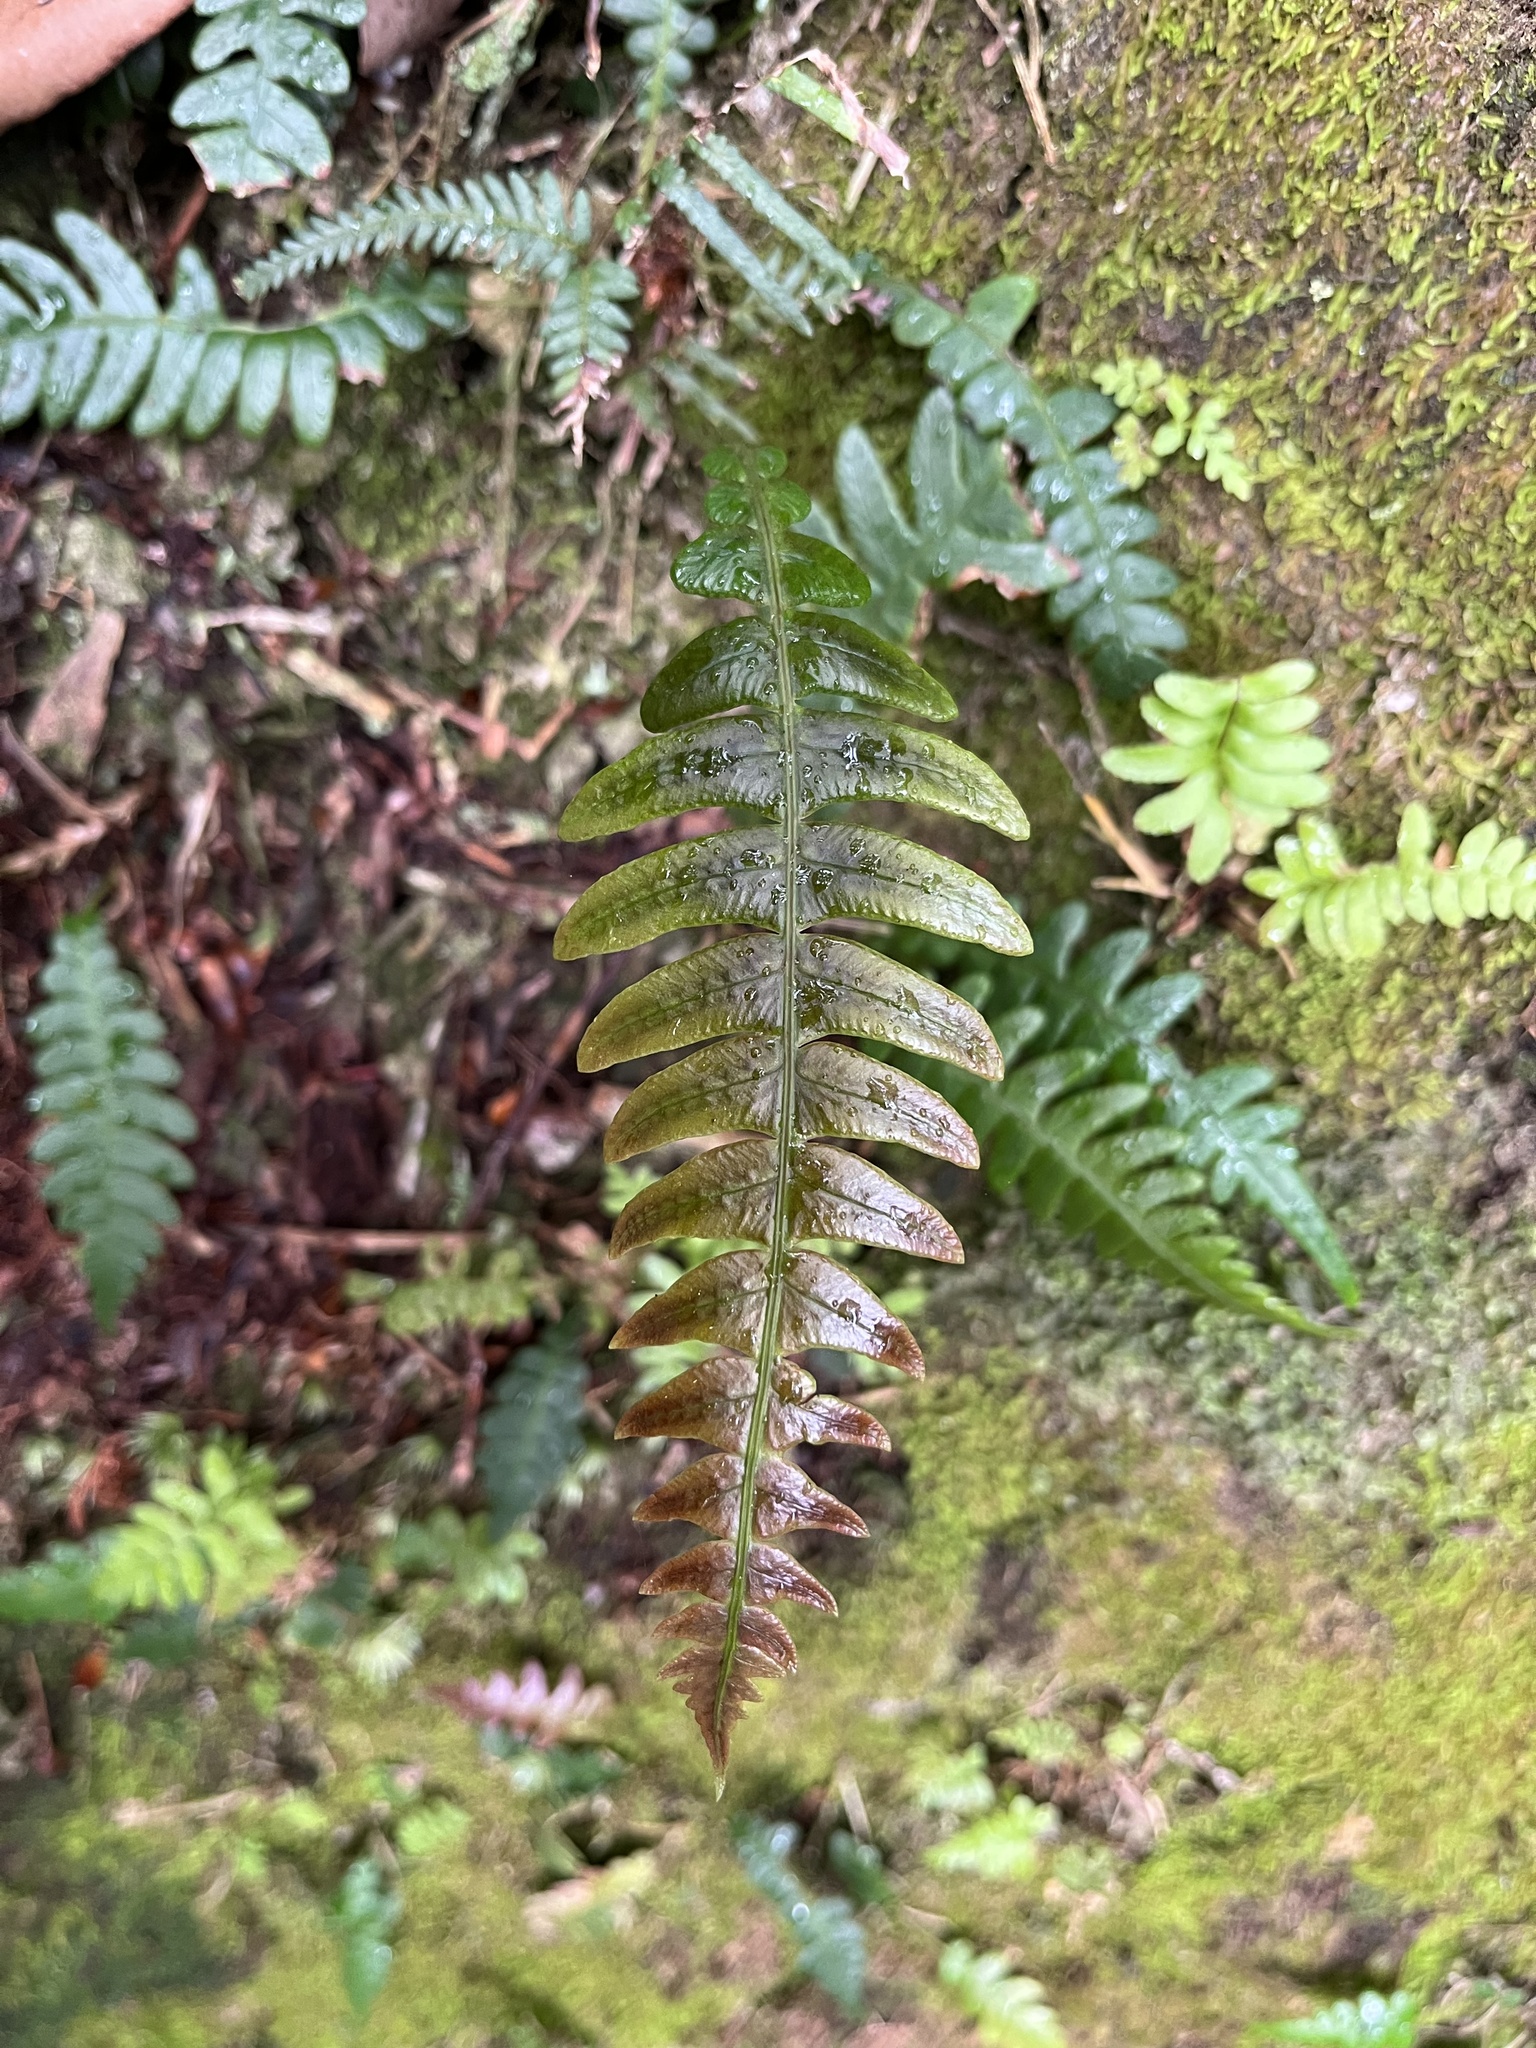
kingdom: Plantae
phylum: Tracheophyta
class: Polypodiopsida
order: Polypodiales
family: Blechnaceae
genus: Blechnidium
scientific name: Blechnidium melanopus
